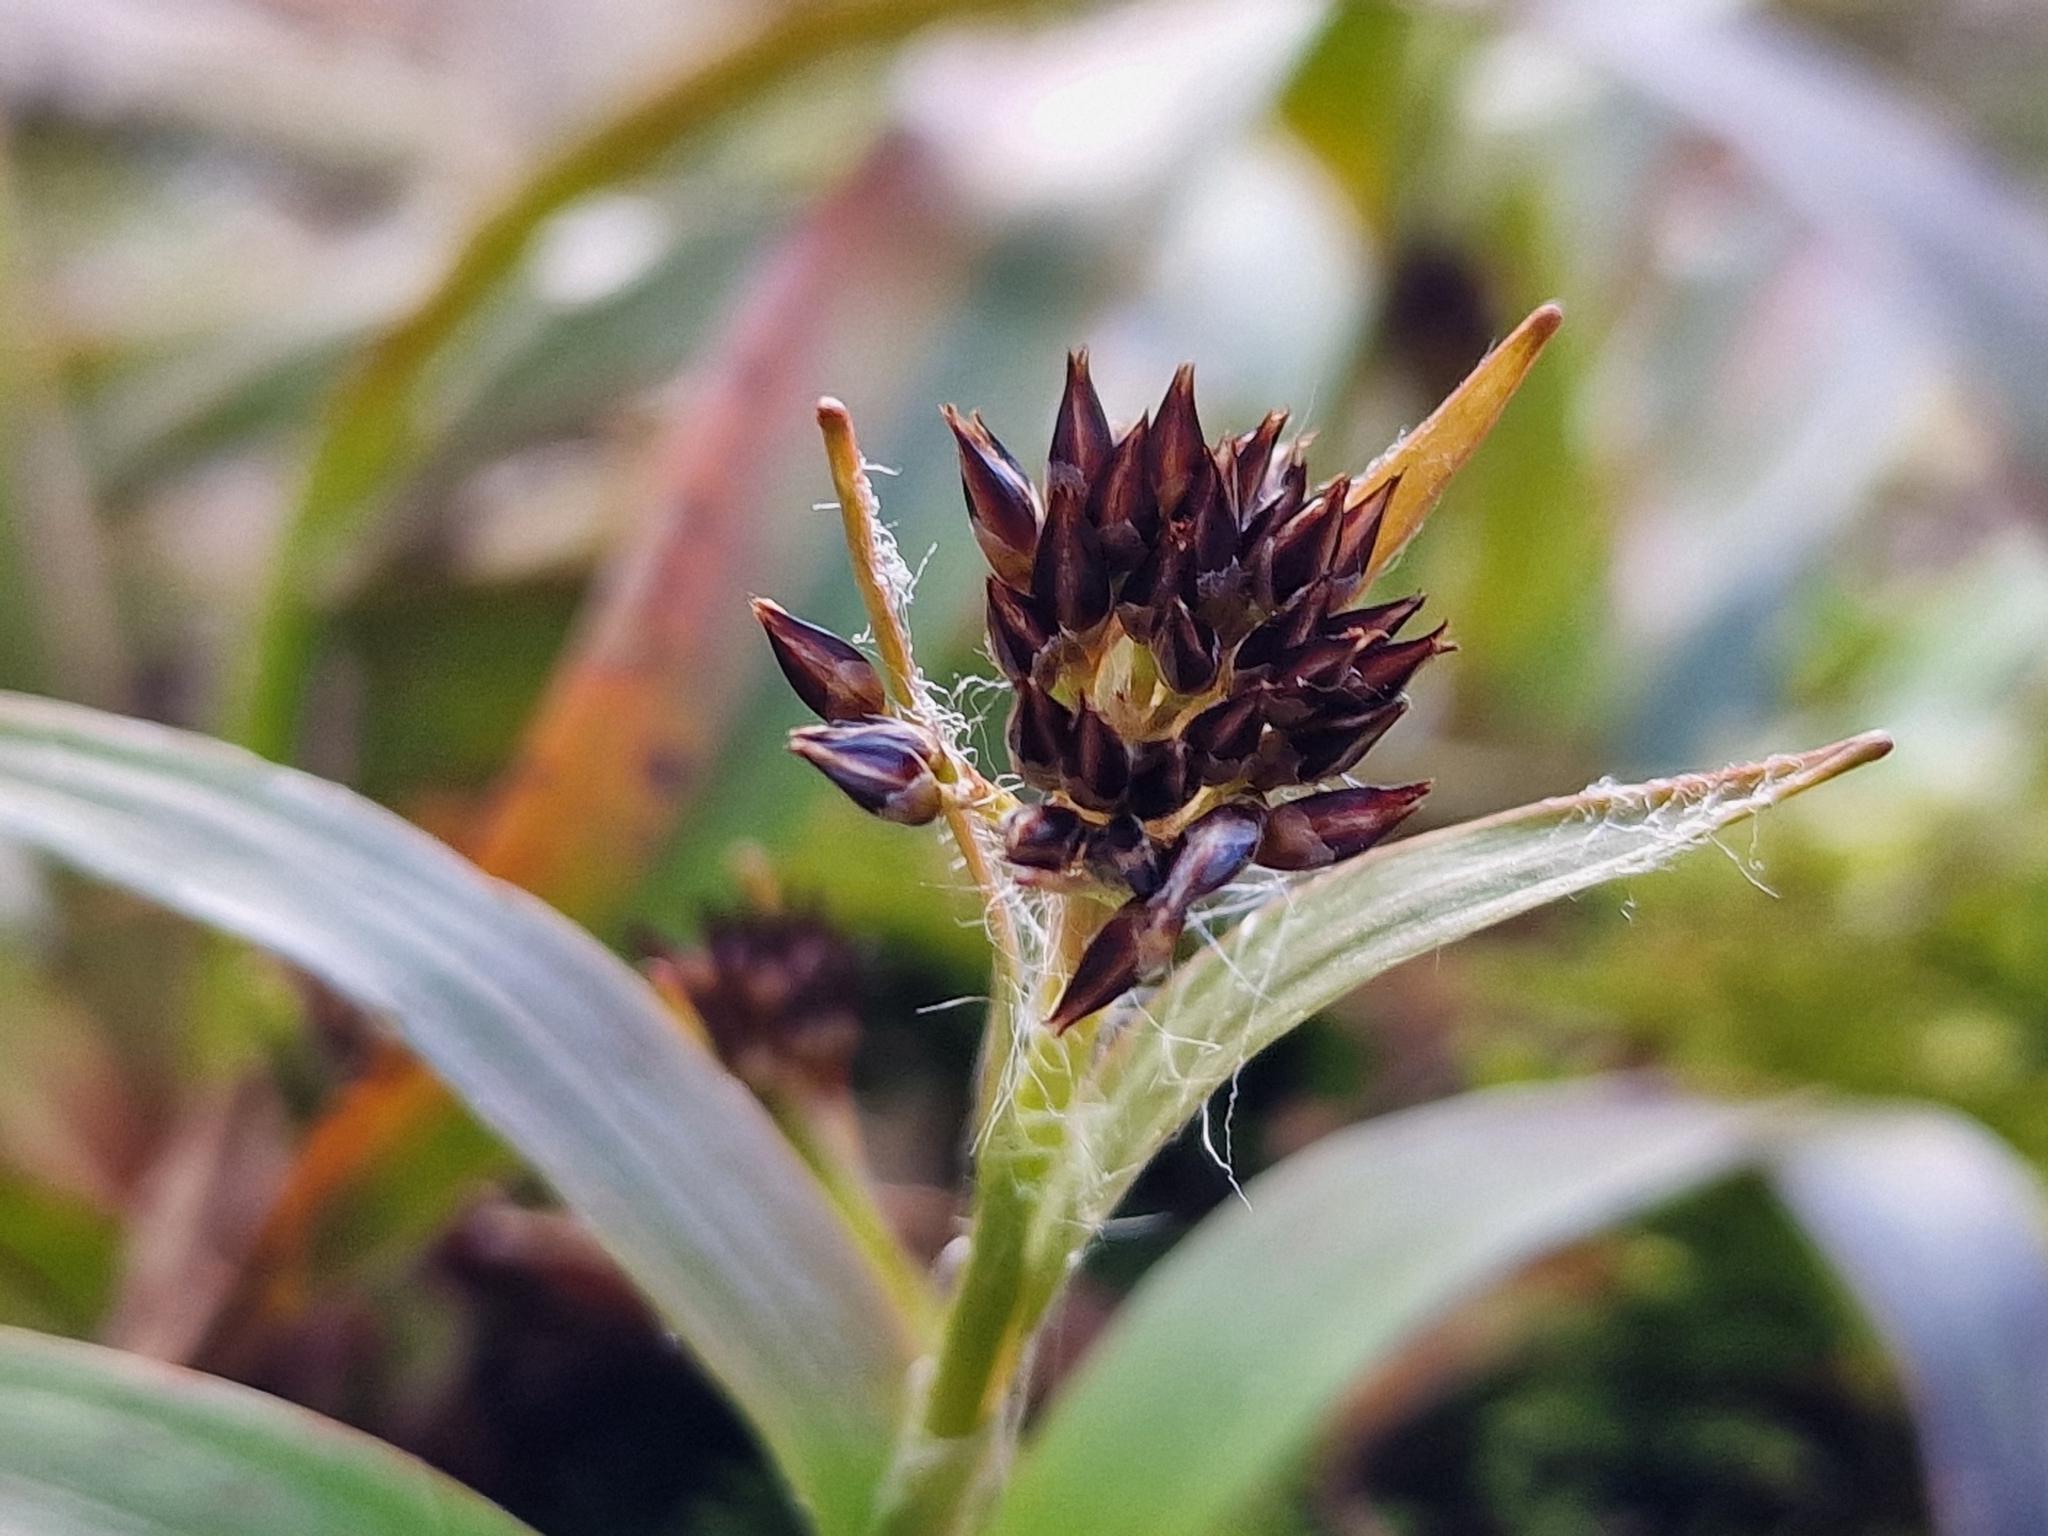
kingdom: Plantae
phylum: Tracheophyta
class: Liliopsida
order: Poales
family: Juncaceae
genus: Luzula
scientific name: Luzula pilosa
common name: Hairy wood-rush
